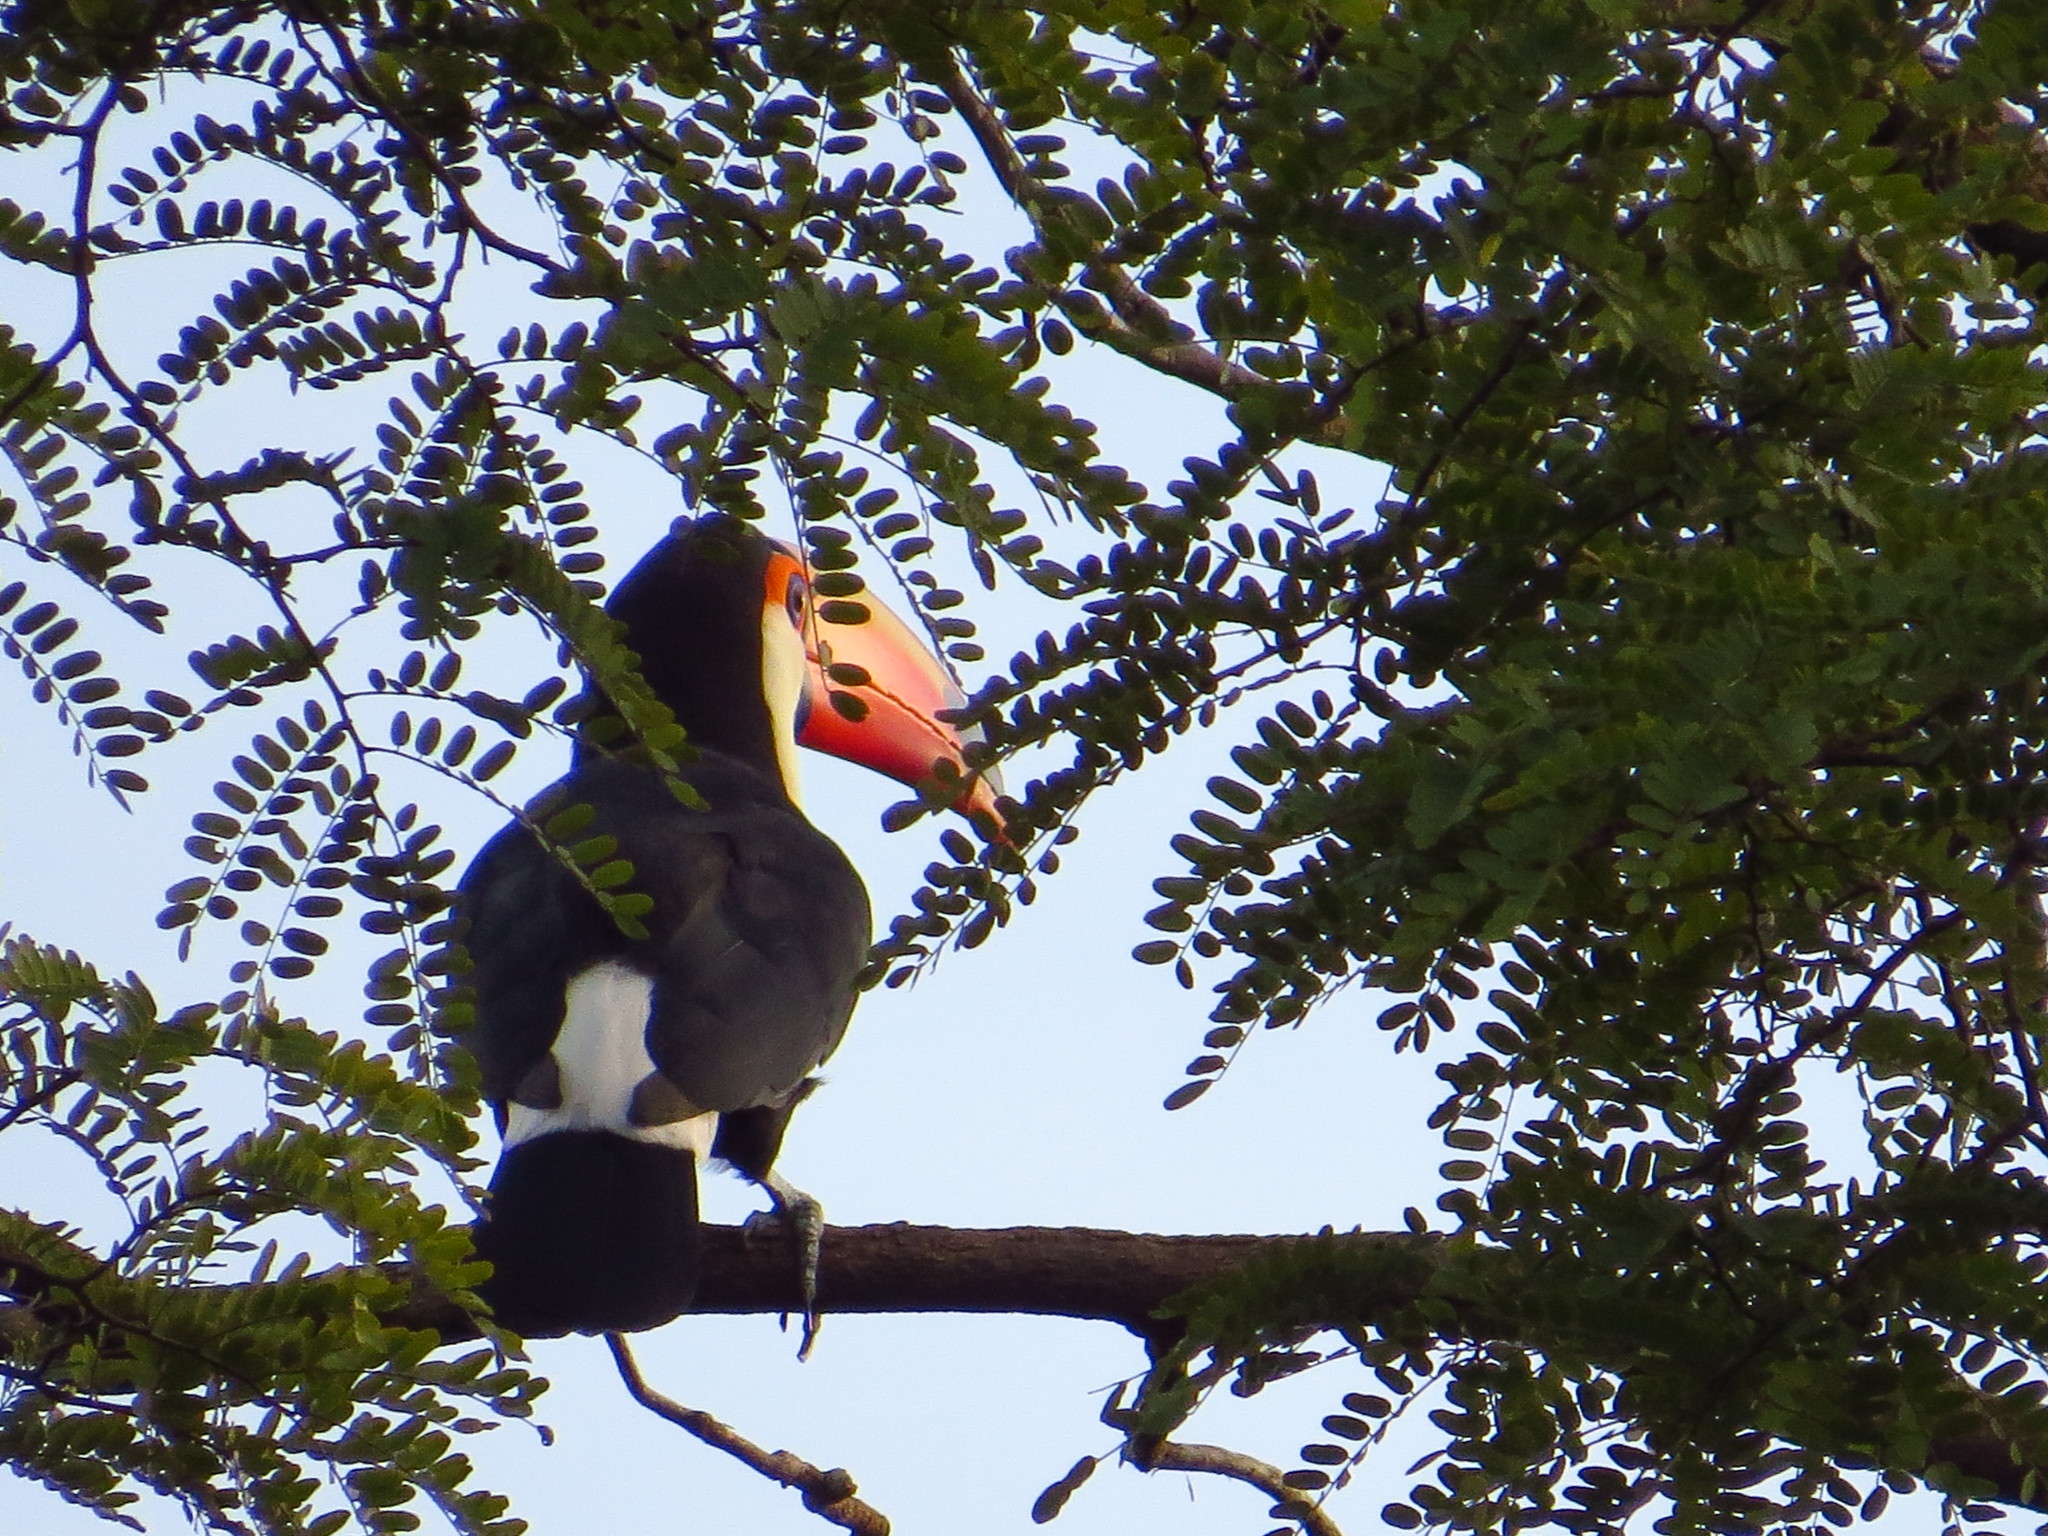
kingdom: Animalia
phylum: Chordata
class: Aves
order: Piciformes
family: Ramphastidae
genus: Ramphastos
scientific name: Ramphastos toco
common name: Toco toucan
